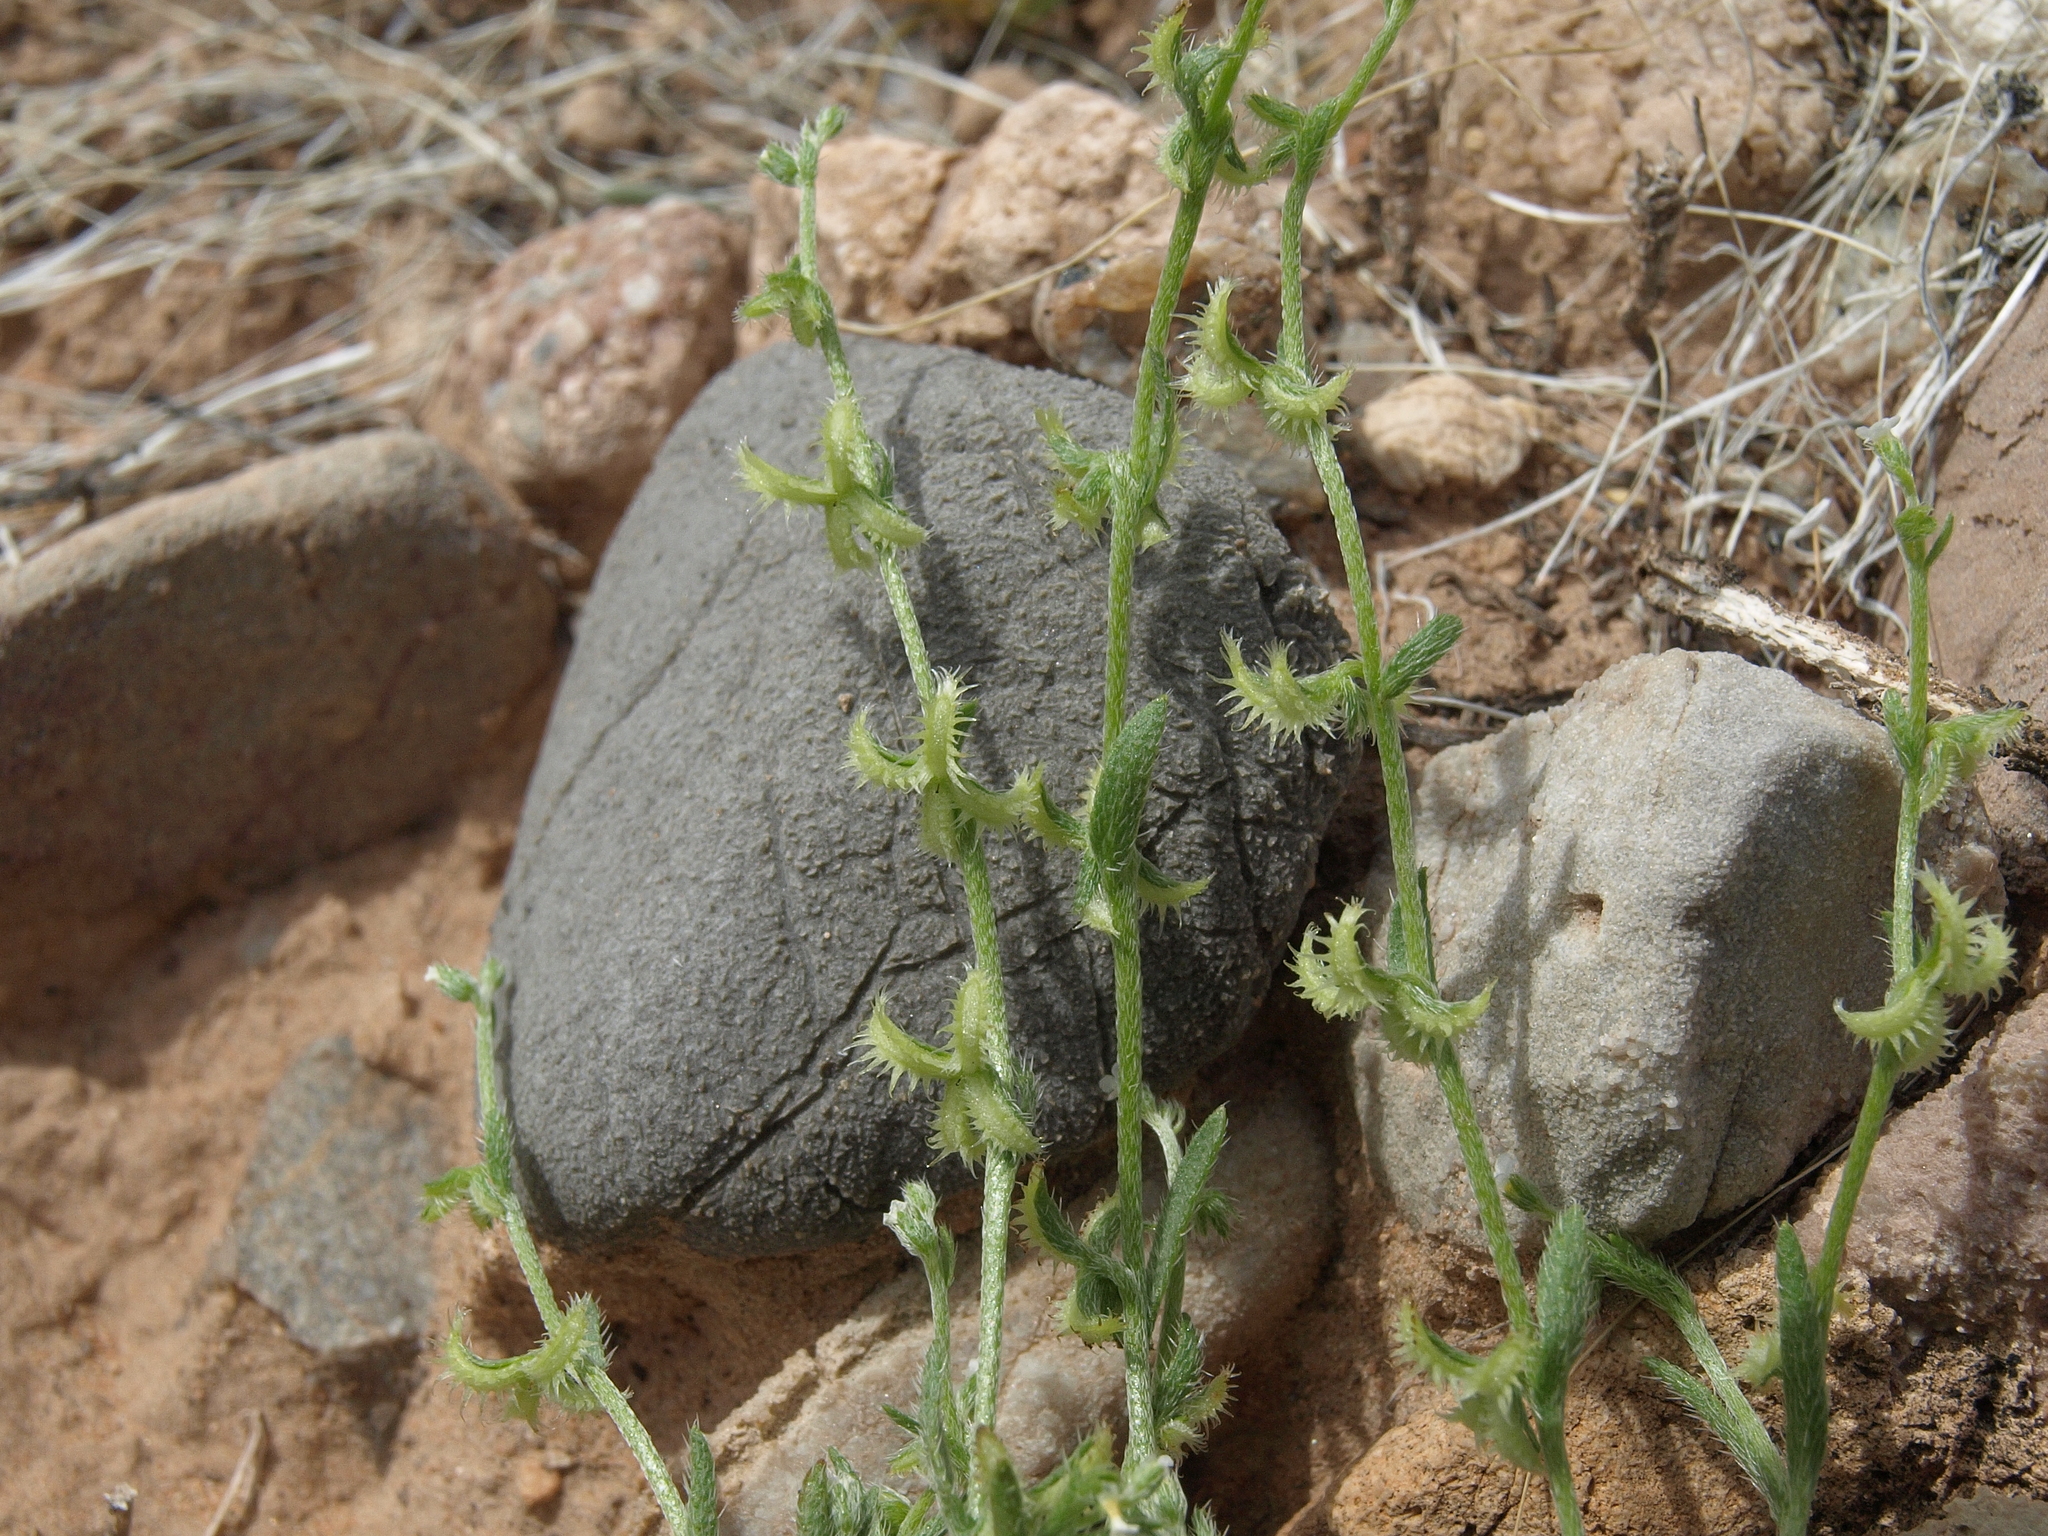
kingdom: Plantae
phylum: Tracheophyta
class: Magnoliopsida
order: Boraginales
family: Boraginaceae
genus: Pectocarya
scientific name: Pectocarya recurvata
